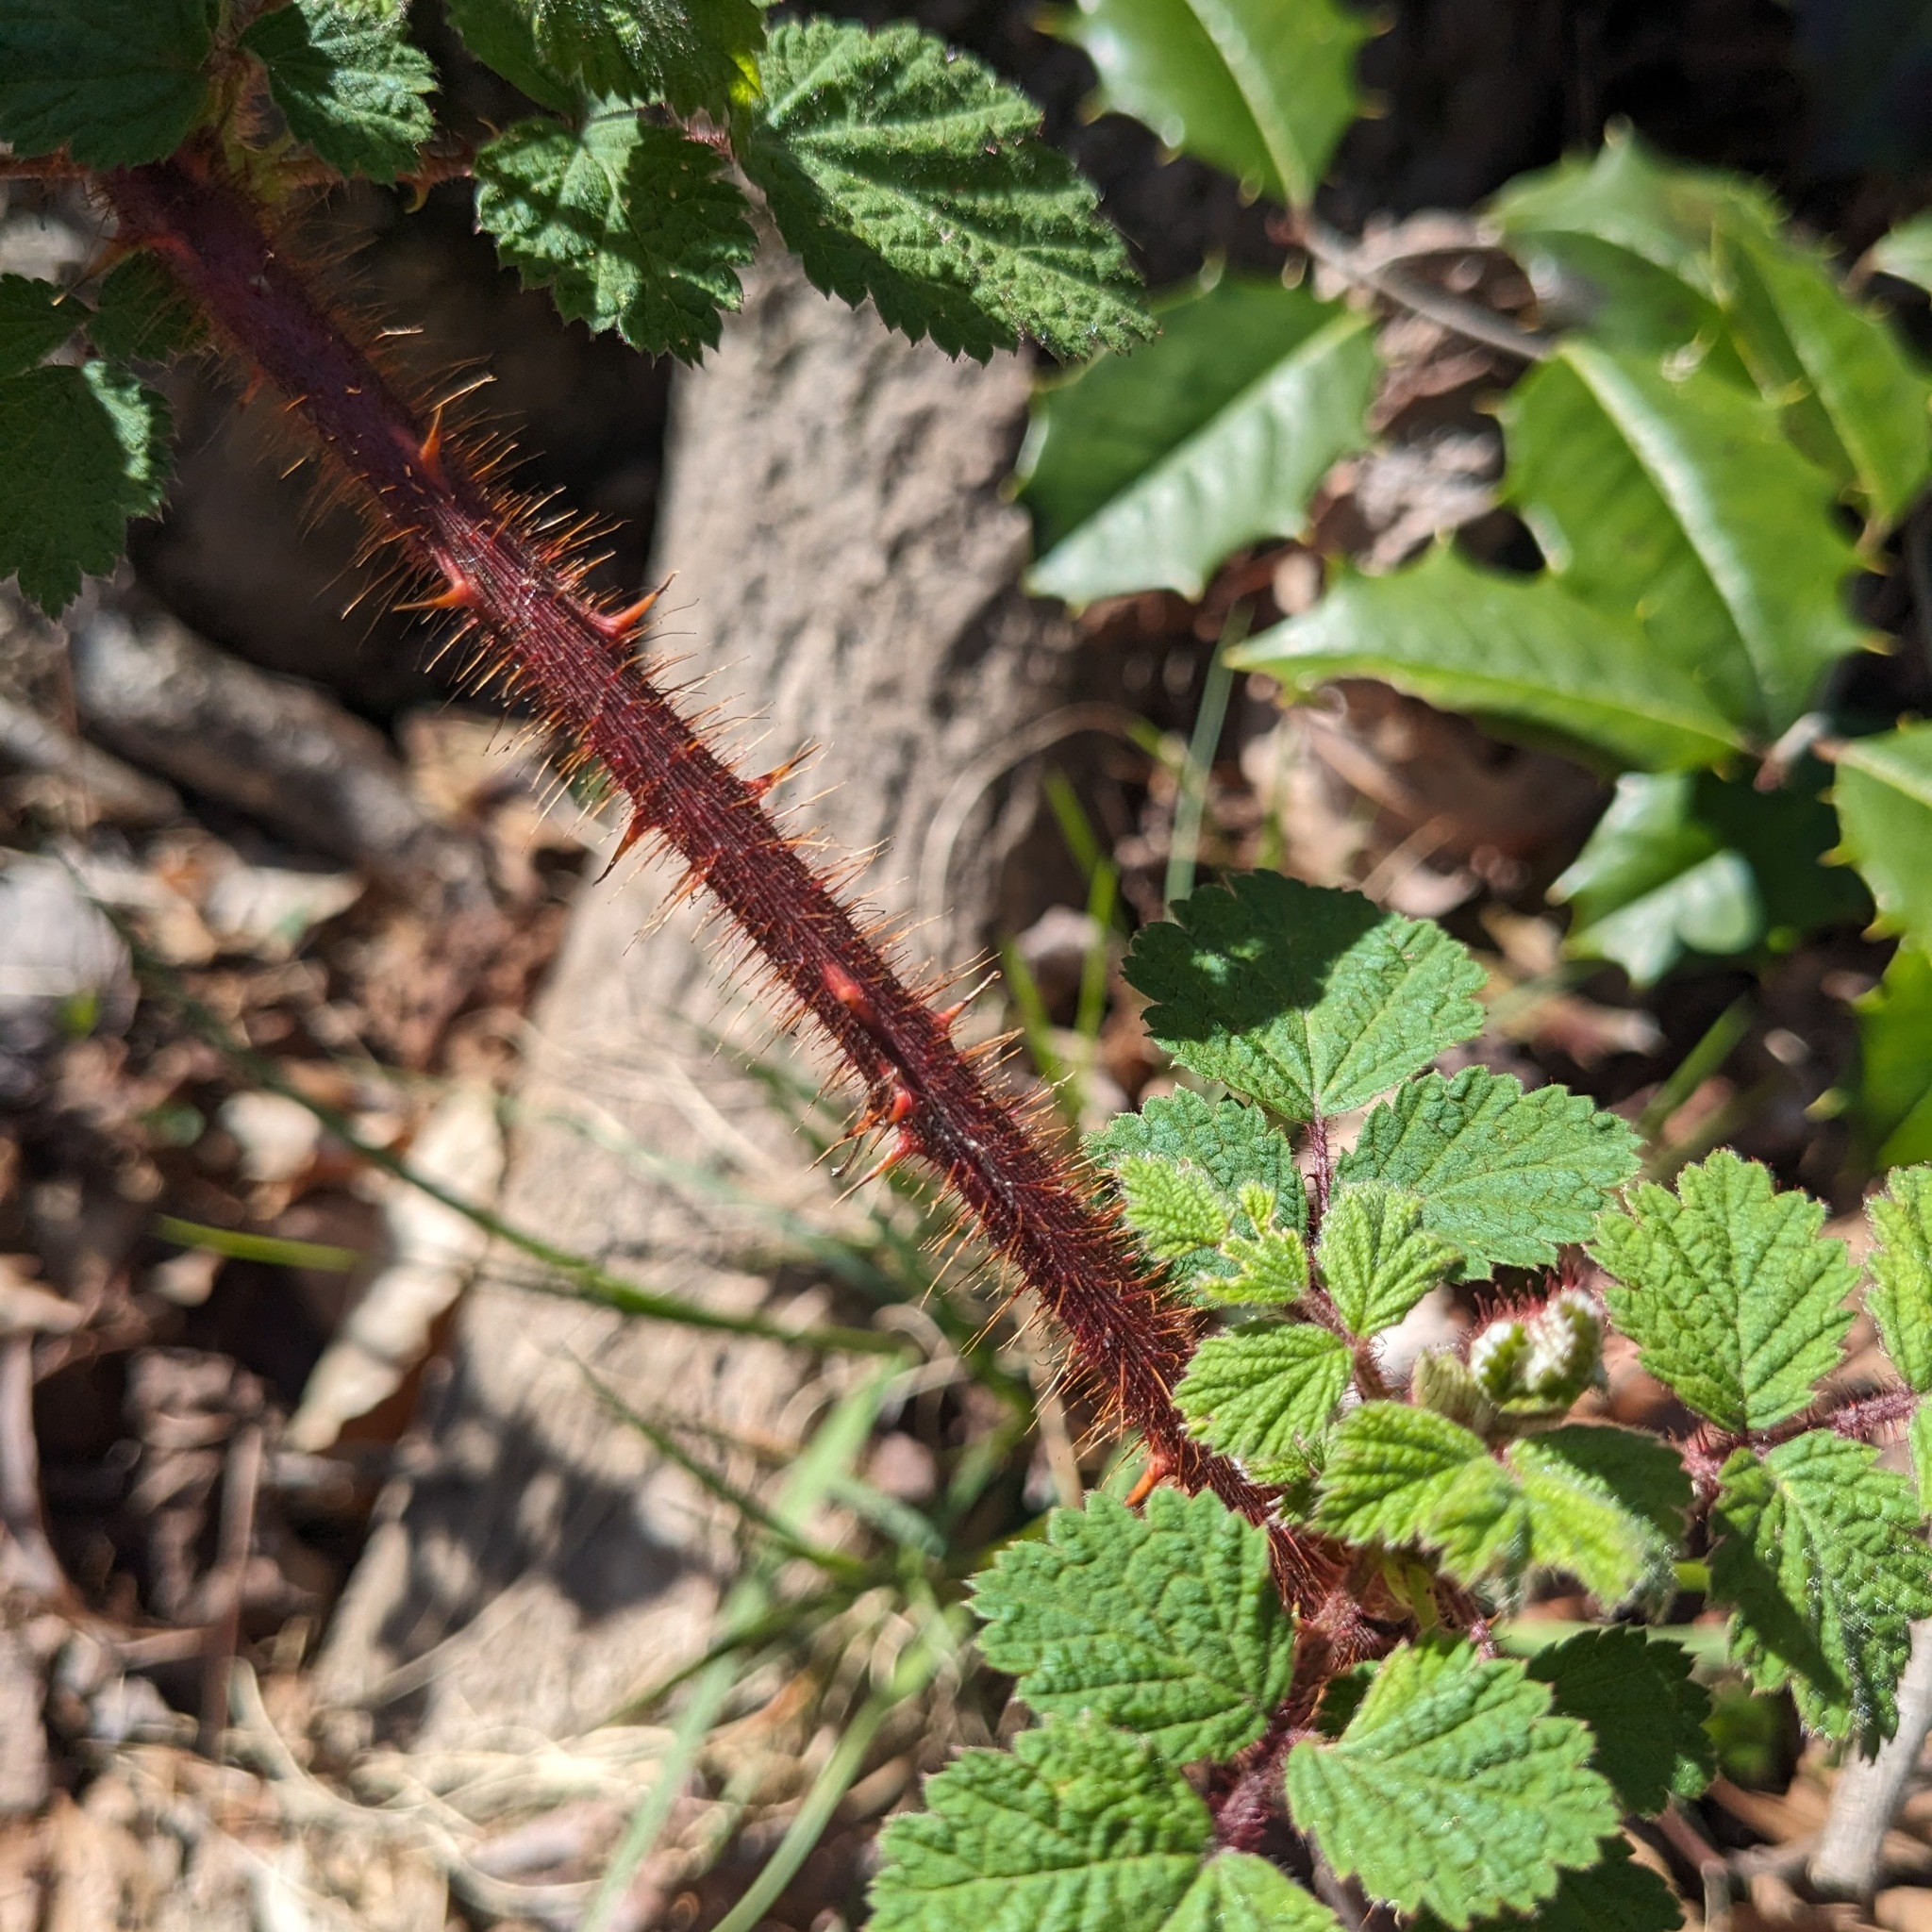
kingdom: Plantae
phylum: Tracheophyta
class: Magnoliopsida
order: Rosales
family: Rosaceae
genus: Rubus
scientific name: Rubus phoenicolasius
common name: Japanese wineberry
